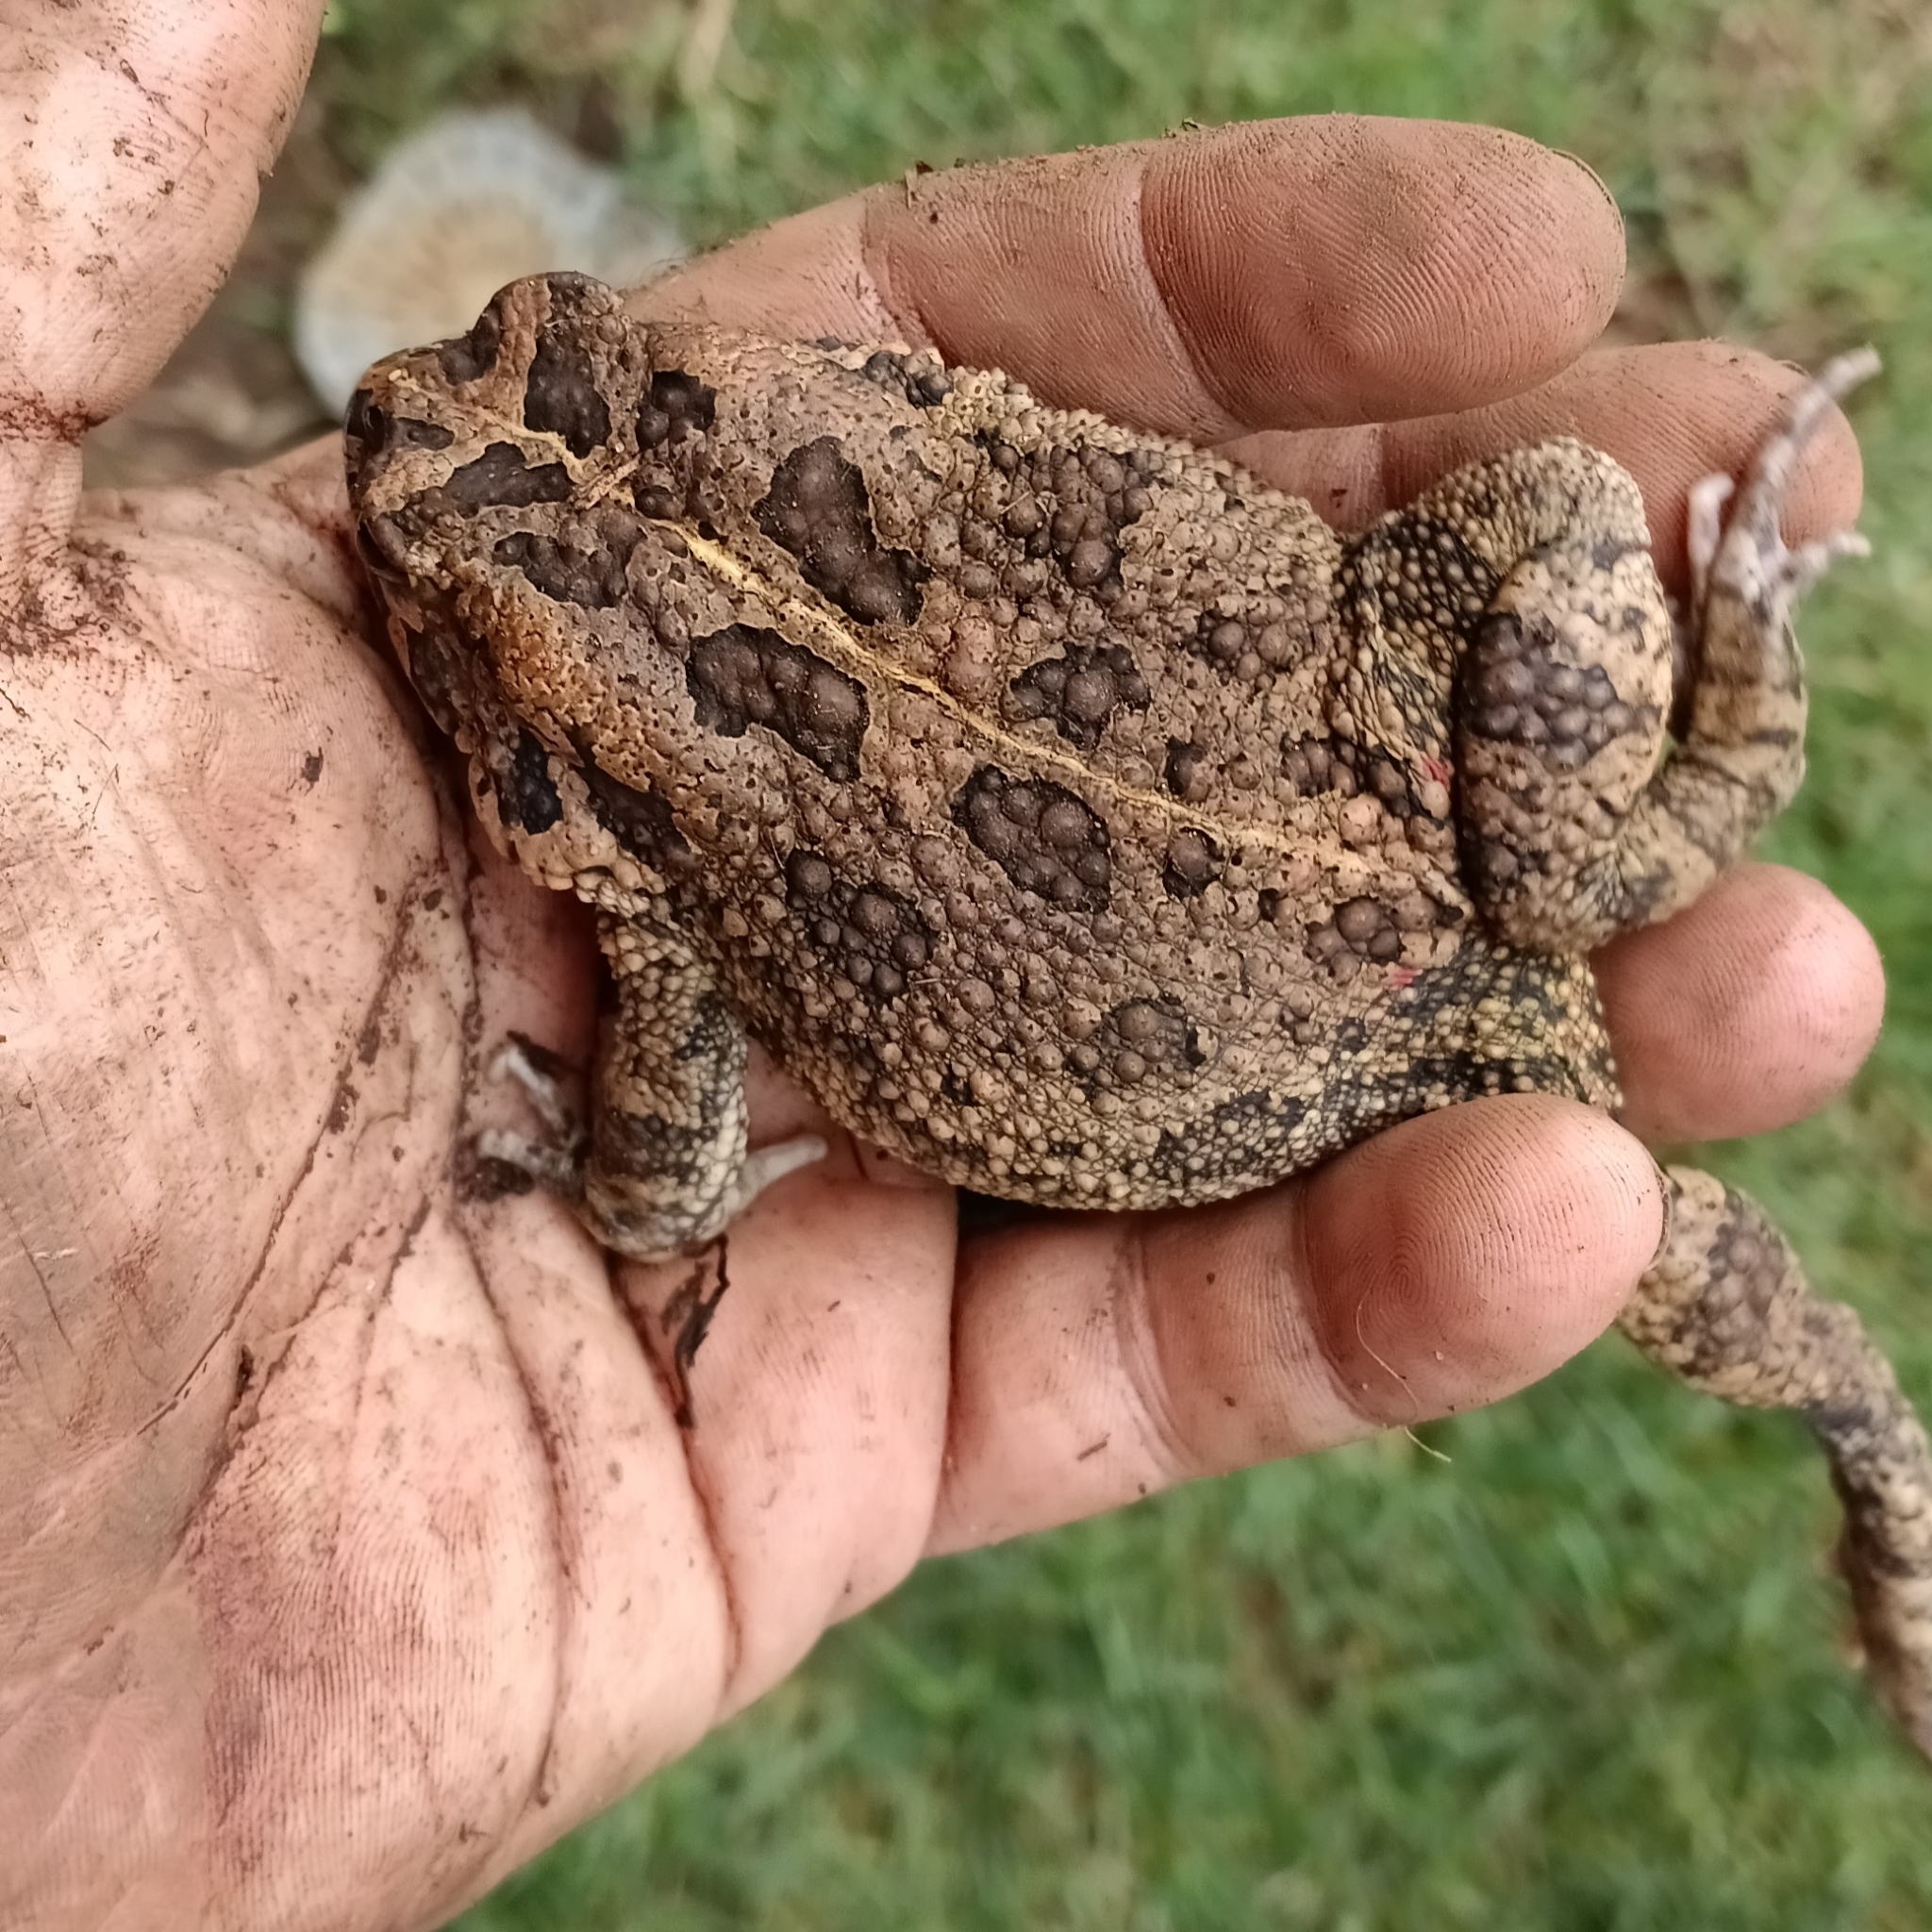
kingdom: Animalia
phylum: Chordata
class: Amphibia
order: Anura
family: Bufonidae
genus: Sclerophrys
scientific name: Sclerophrys gutturalis
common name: African common toad
